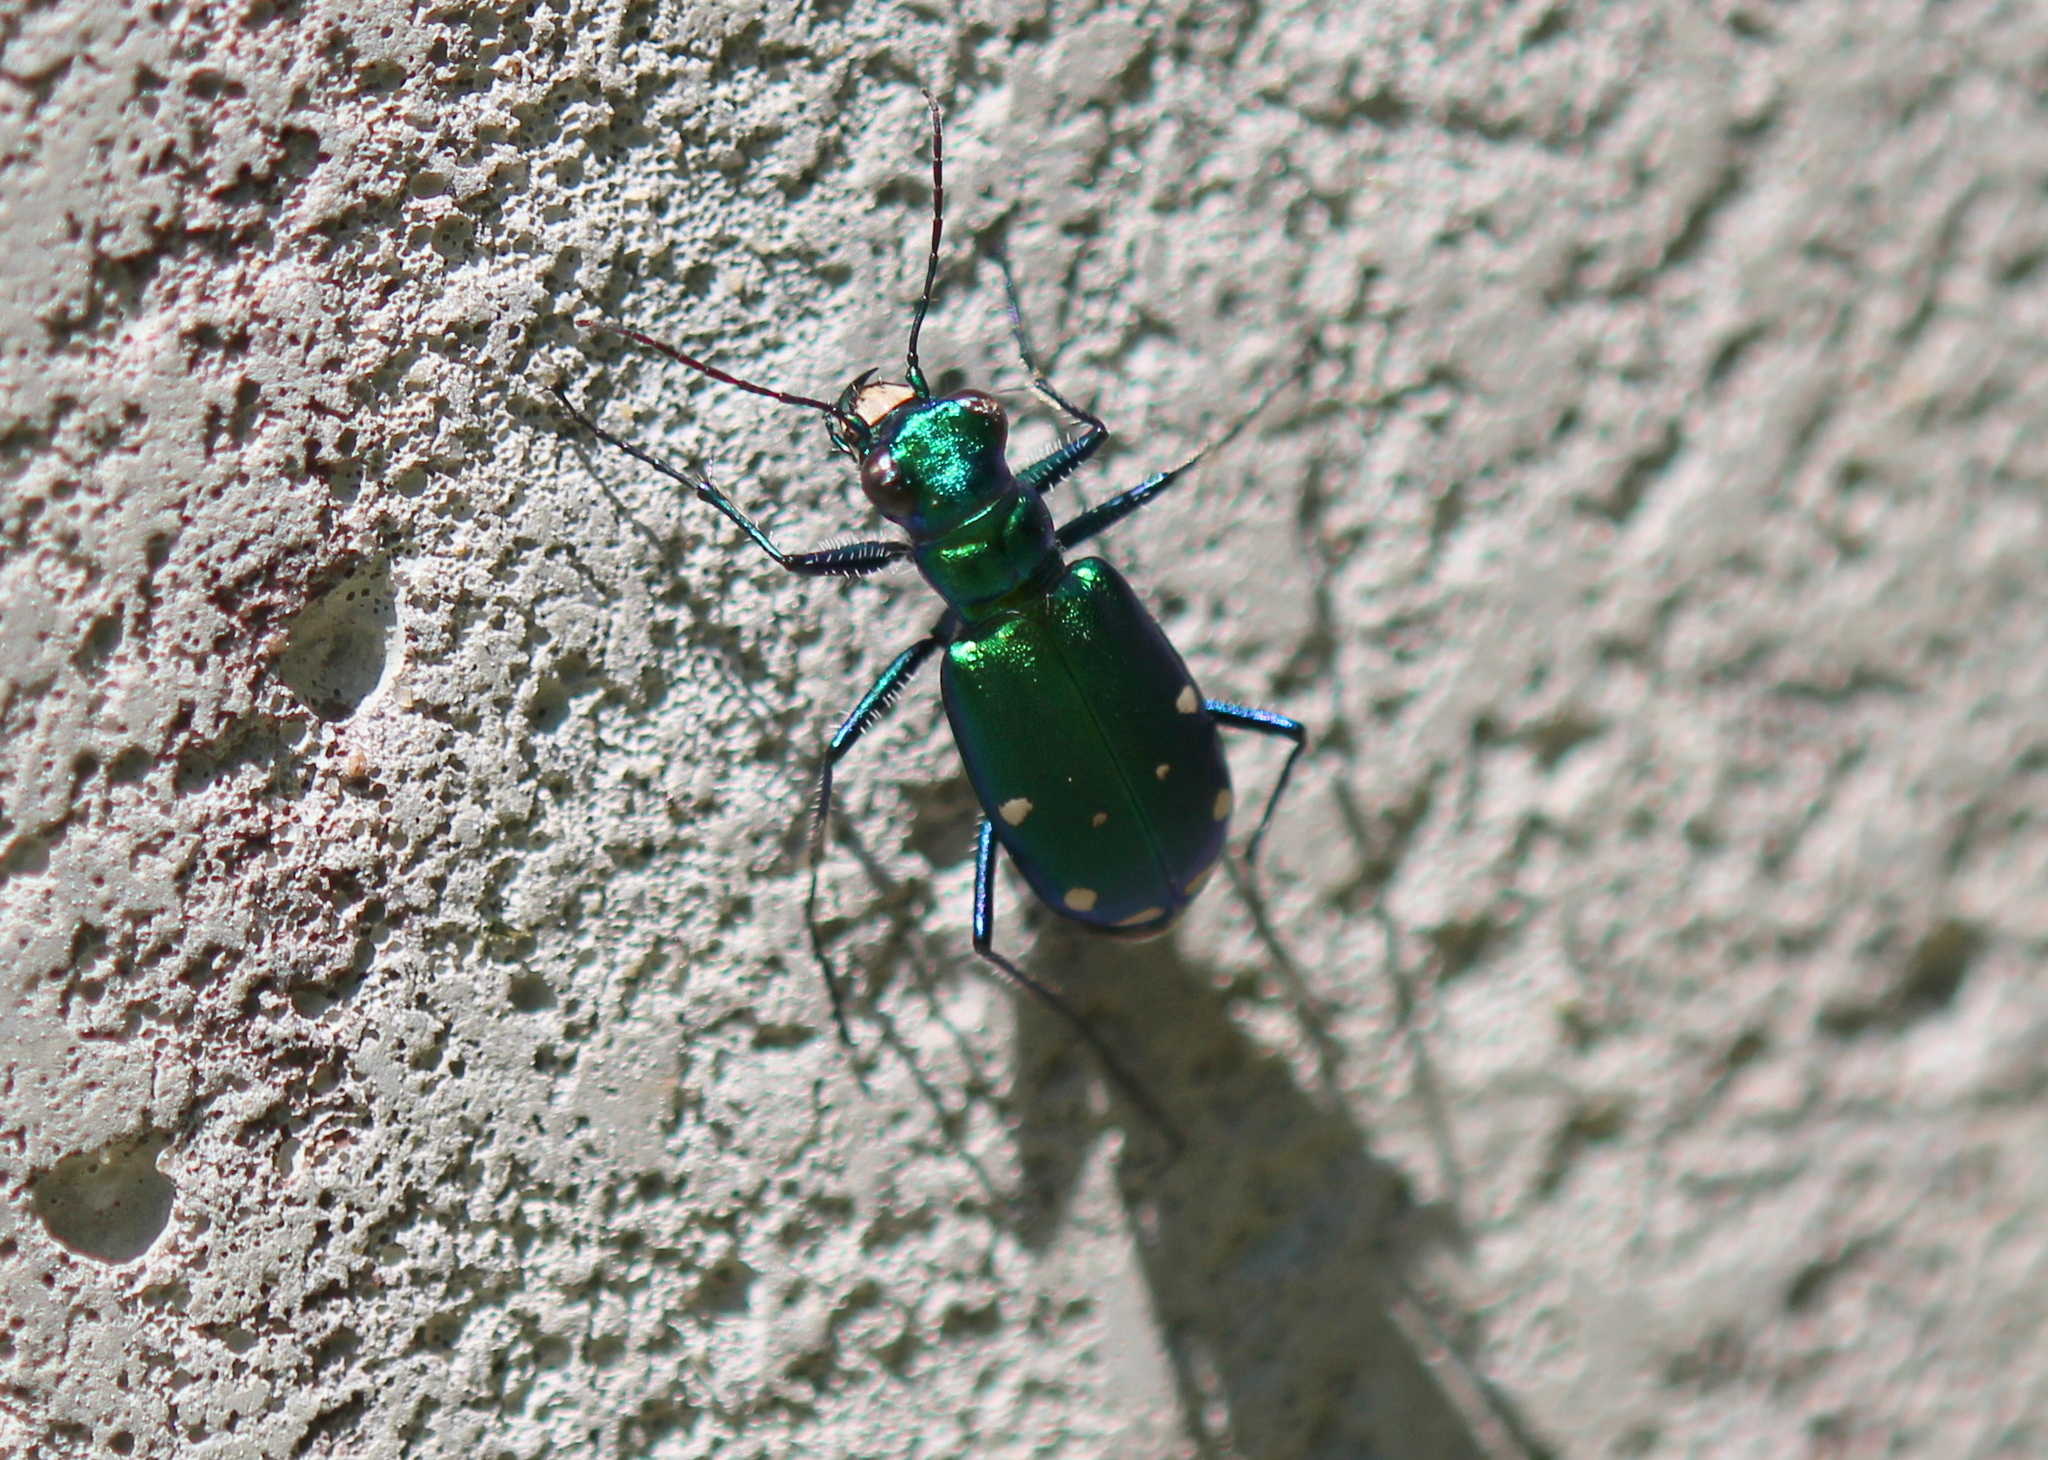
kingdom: Animalia
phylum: Arthropoda
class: Insecta
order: Coleoptera
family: Carabidae
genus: Cicindela
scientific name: Cicindela sexguttata
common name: Six-spotted tiger beetle
